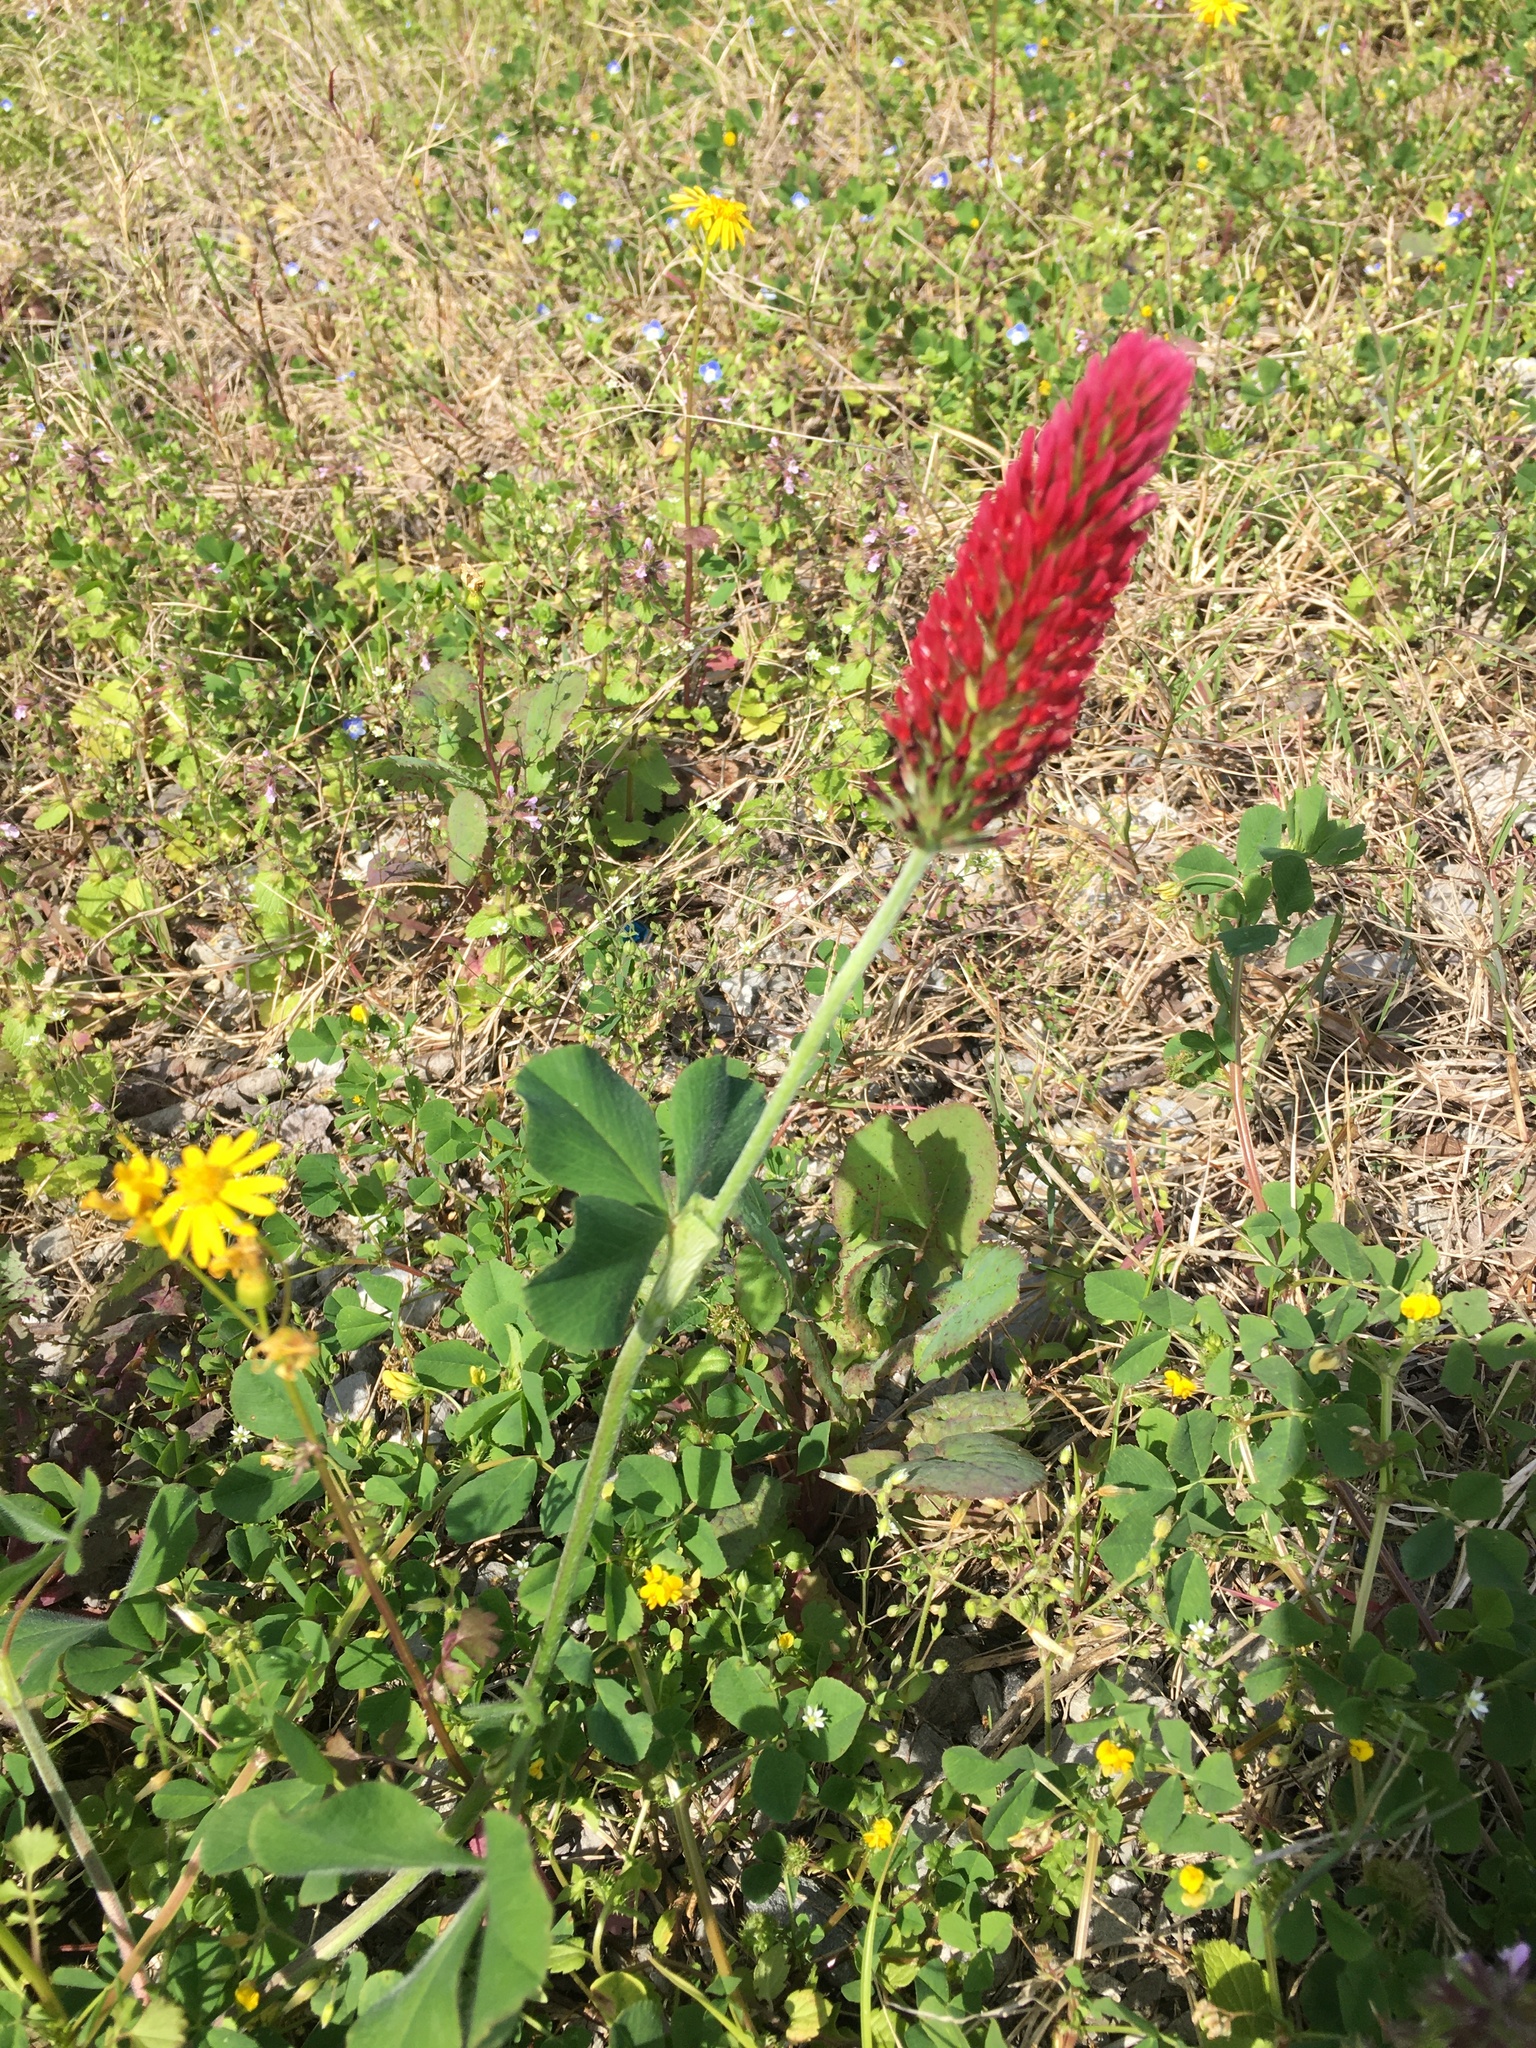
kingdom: Plantae
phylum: Tracheophyta
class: Magnoliopsida
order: Fabales
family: Fabaceae
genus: Trifolium
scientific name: Trifolium incarnatum
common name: Crimson clover
